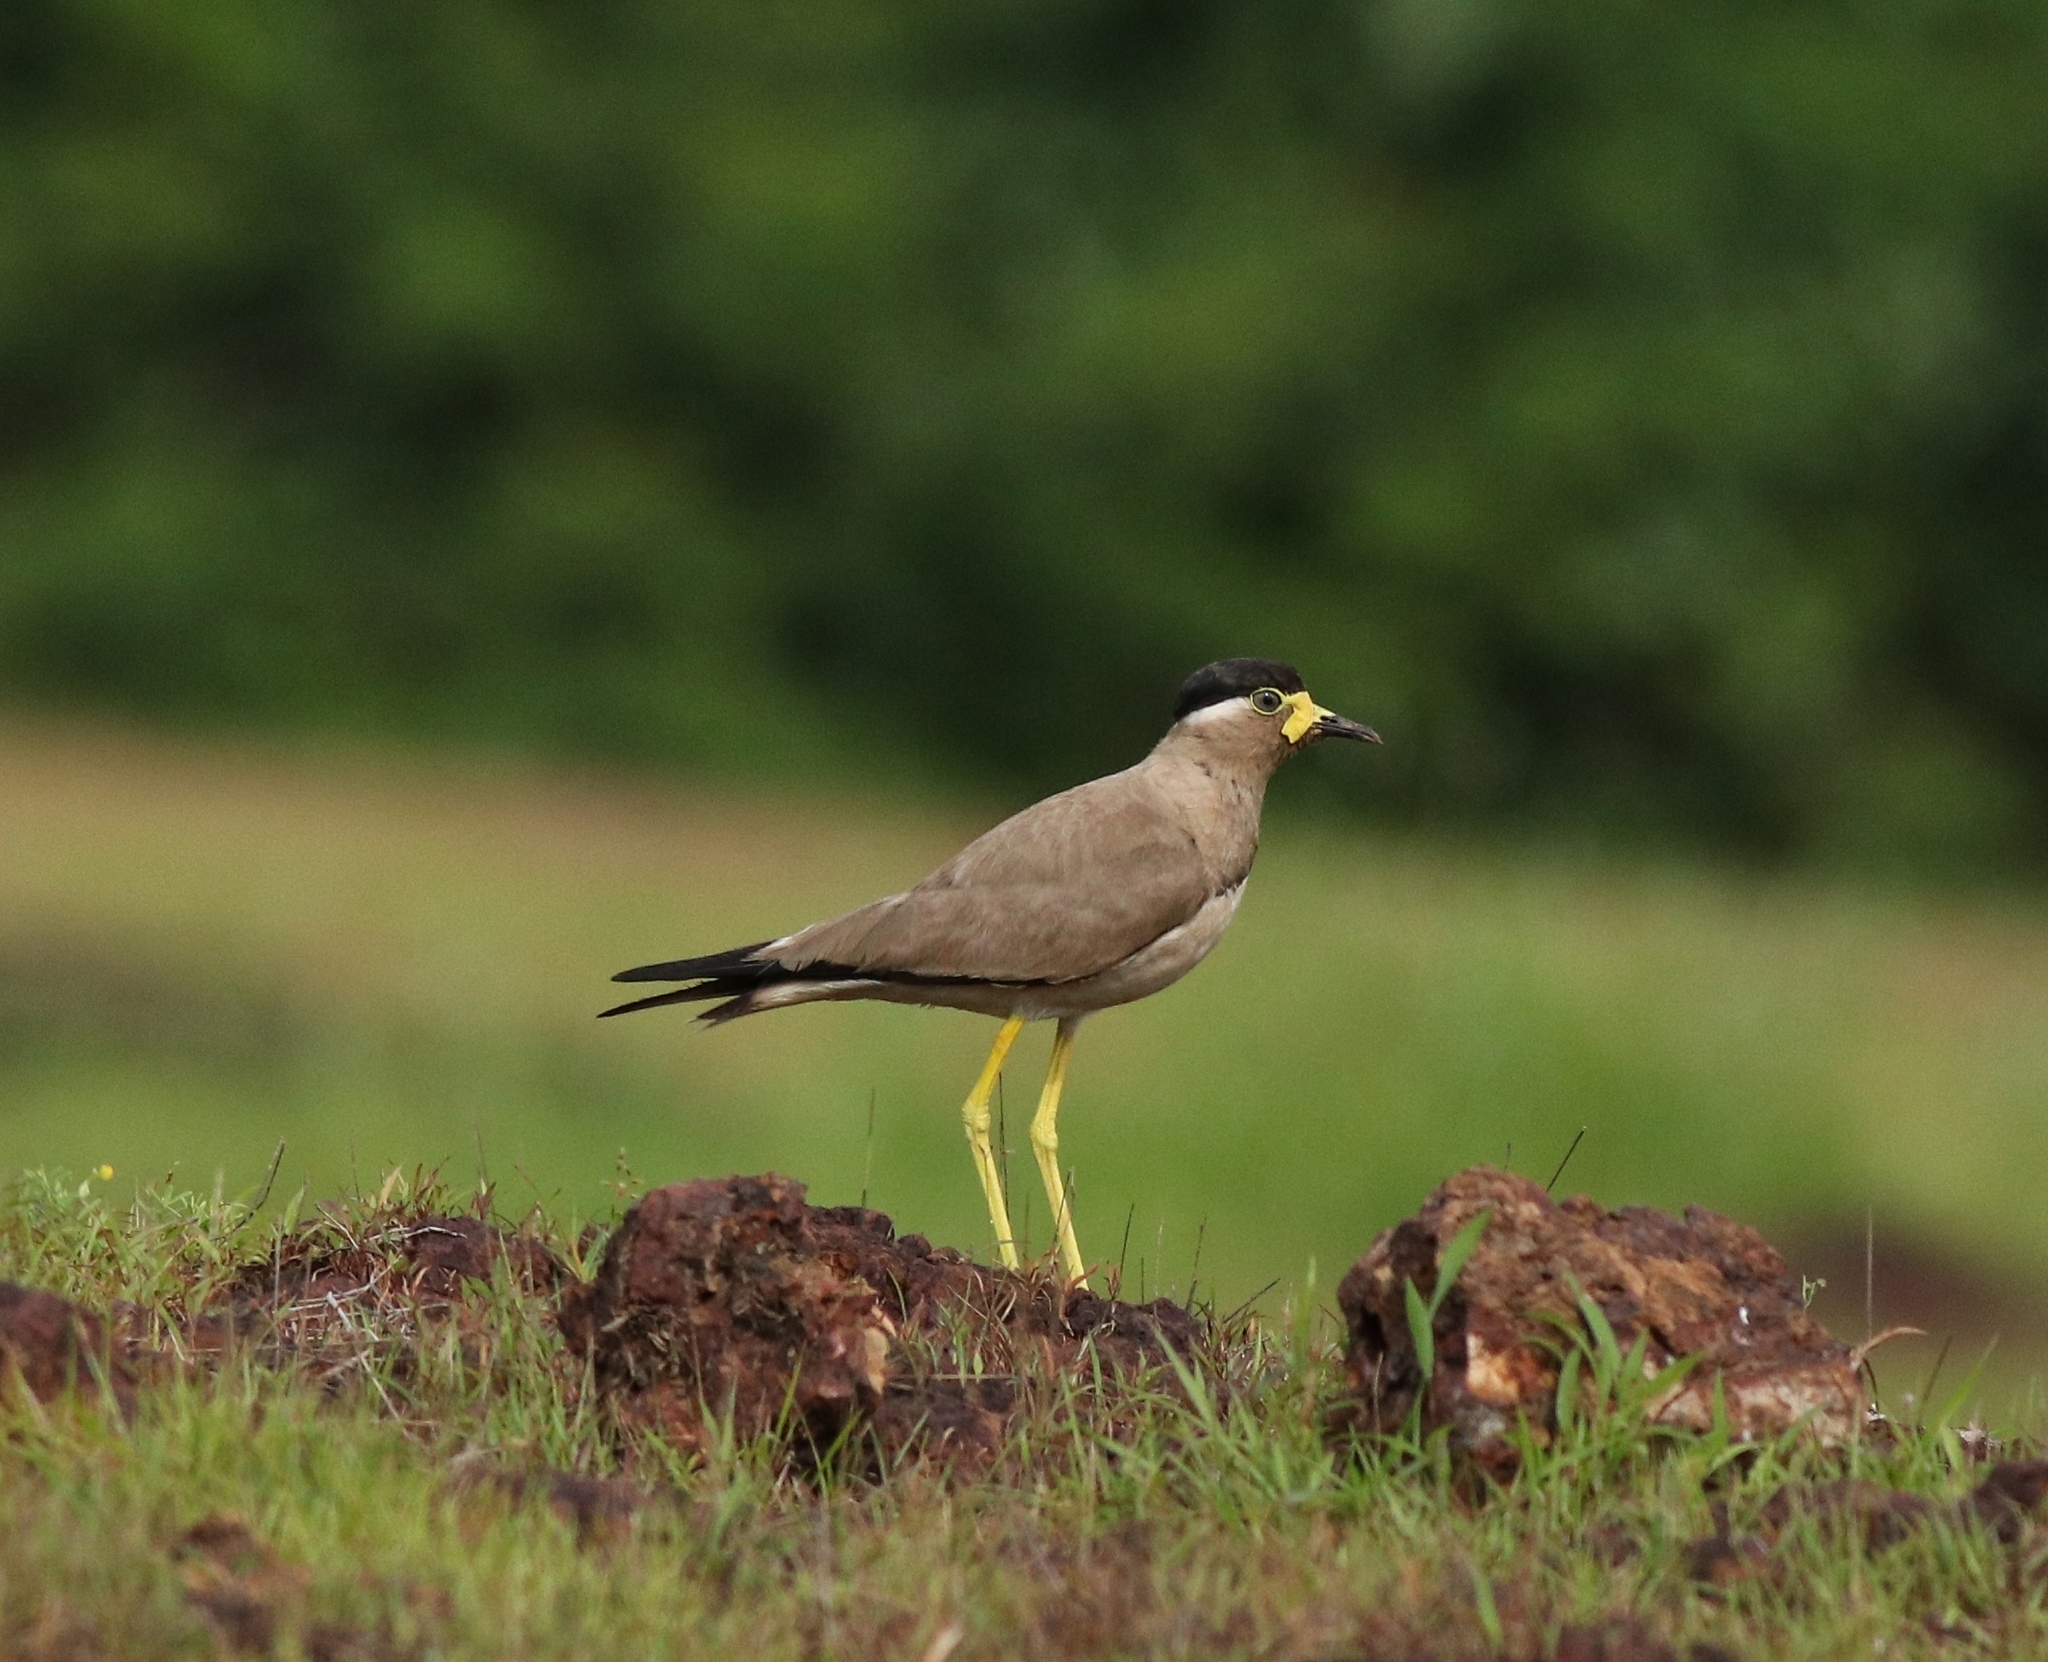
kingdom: Animalia
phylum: Chordata
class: Aves
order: Charadriiformes
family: Charadriidae
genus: Vanellus
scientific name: Vanellus malabaricus
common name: Yellow-wattled lapwing
